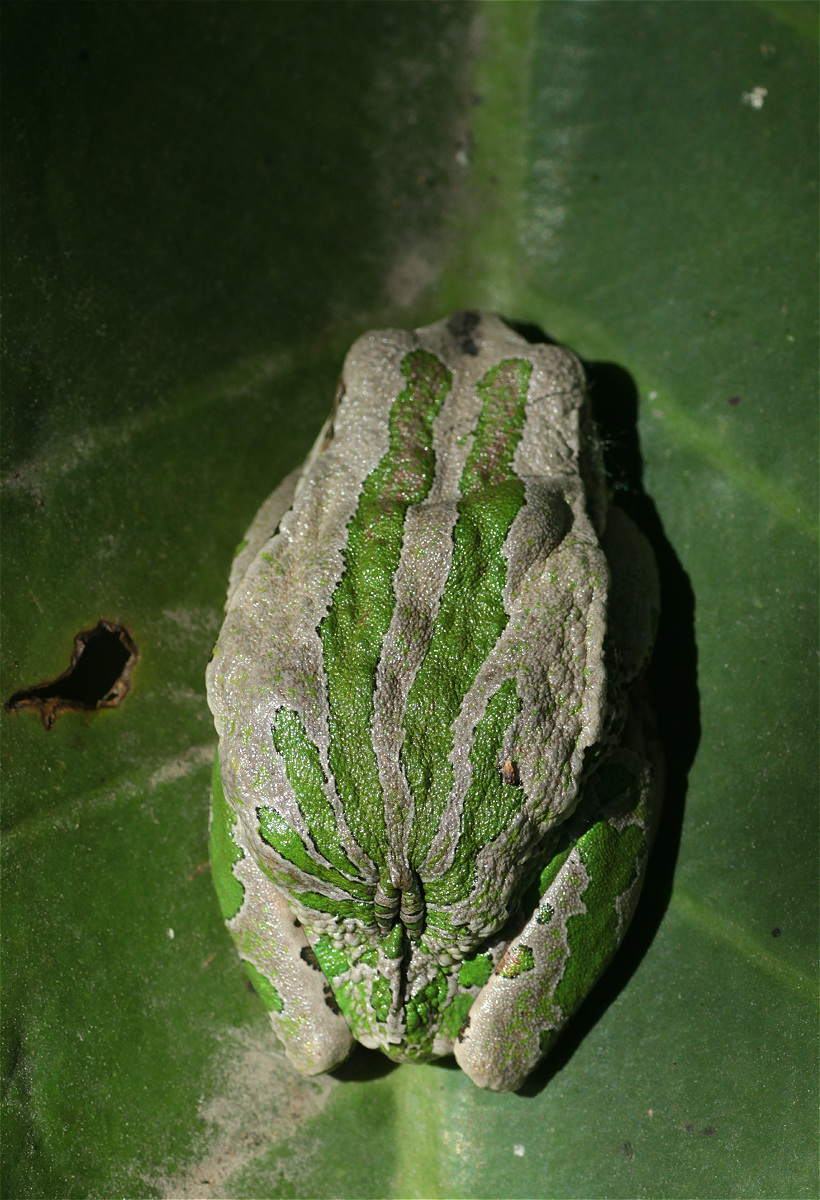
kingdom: Animalia
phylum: Chordata
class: Amphibia
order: Anura
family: Hemiphractidae
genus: Gastrotheca
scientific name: Gastrotheca cuencana
